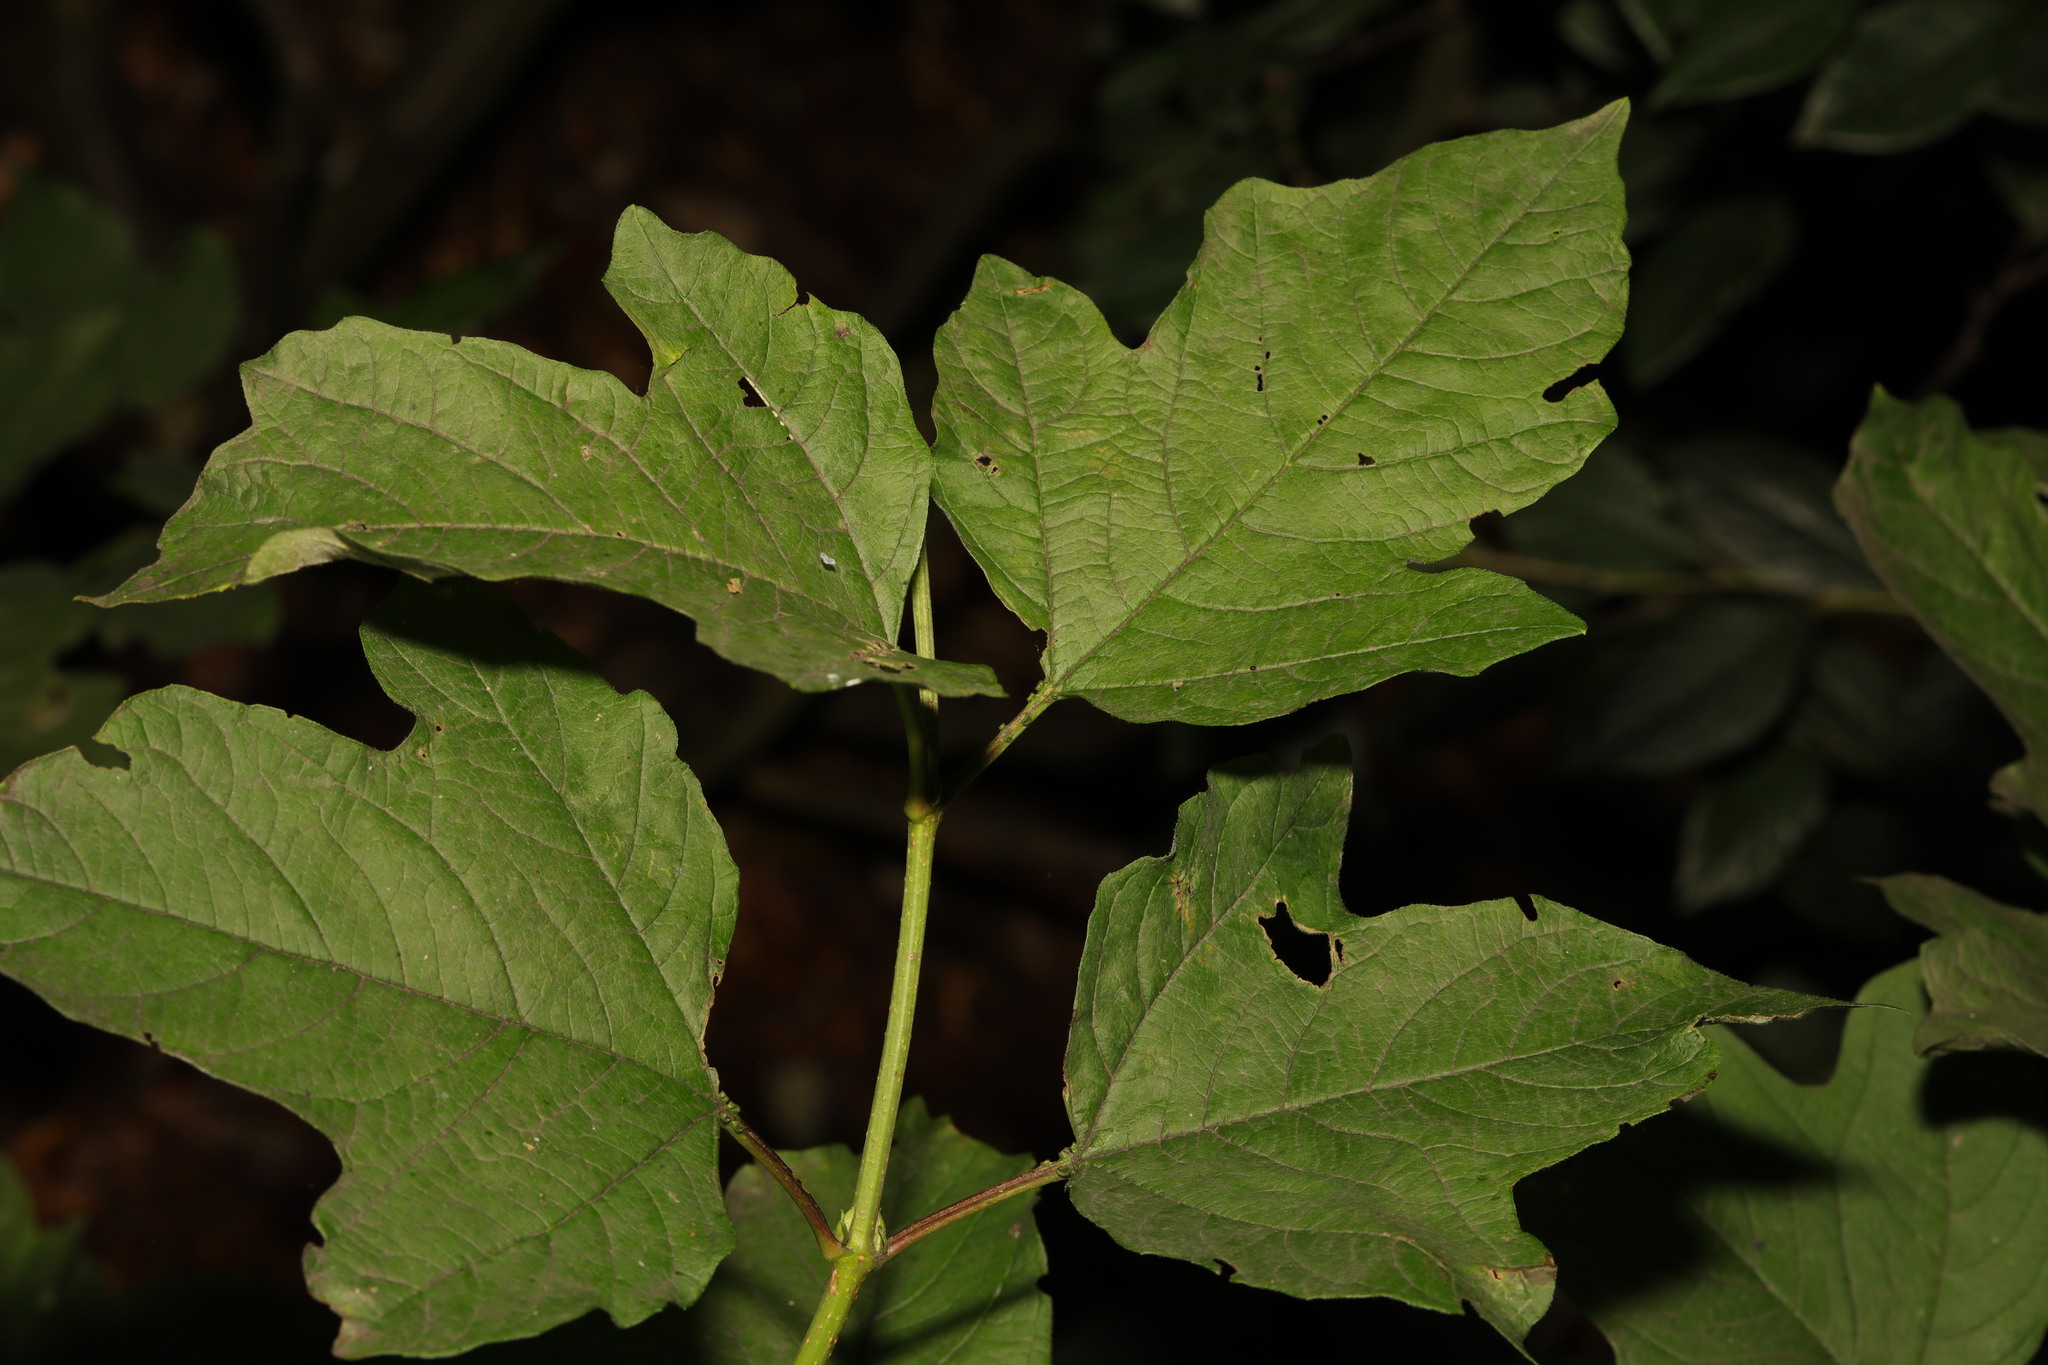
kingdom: Plantae
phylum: Tracheophyta
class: Magnoliopsida
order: Dipsacales
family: Viburnaceae
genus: Viburnum
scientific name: Viburnum opulus
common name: Guelder-rose
